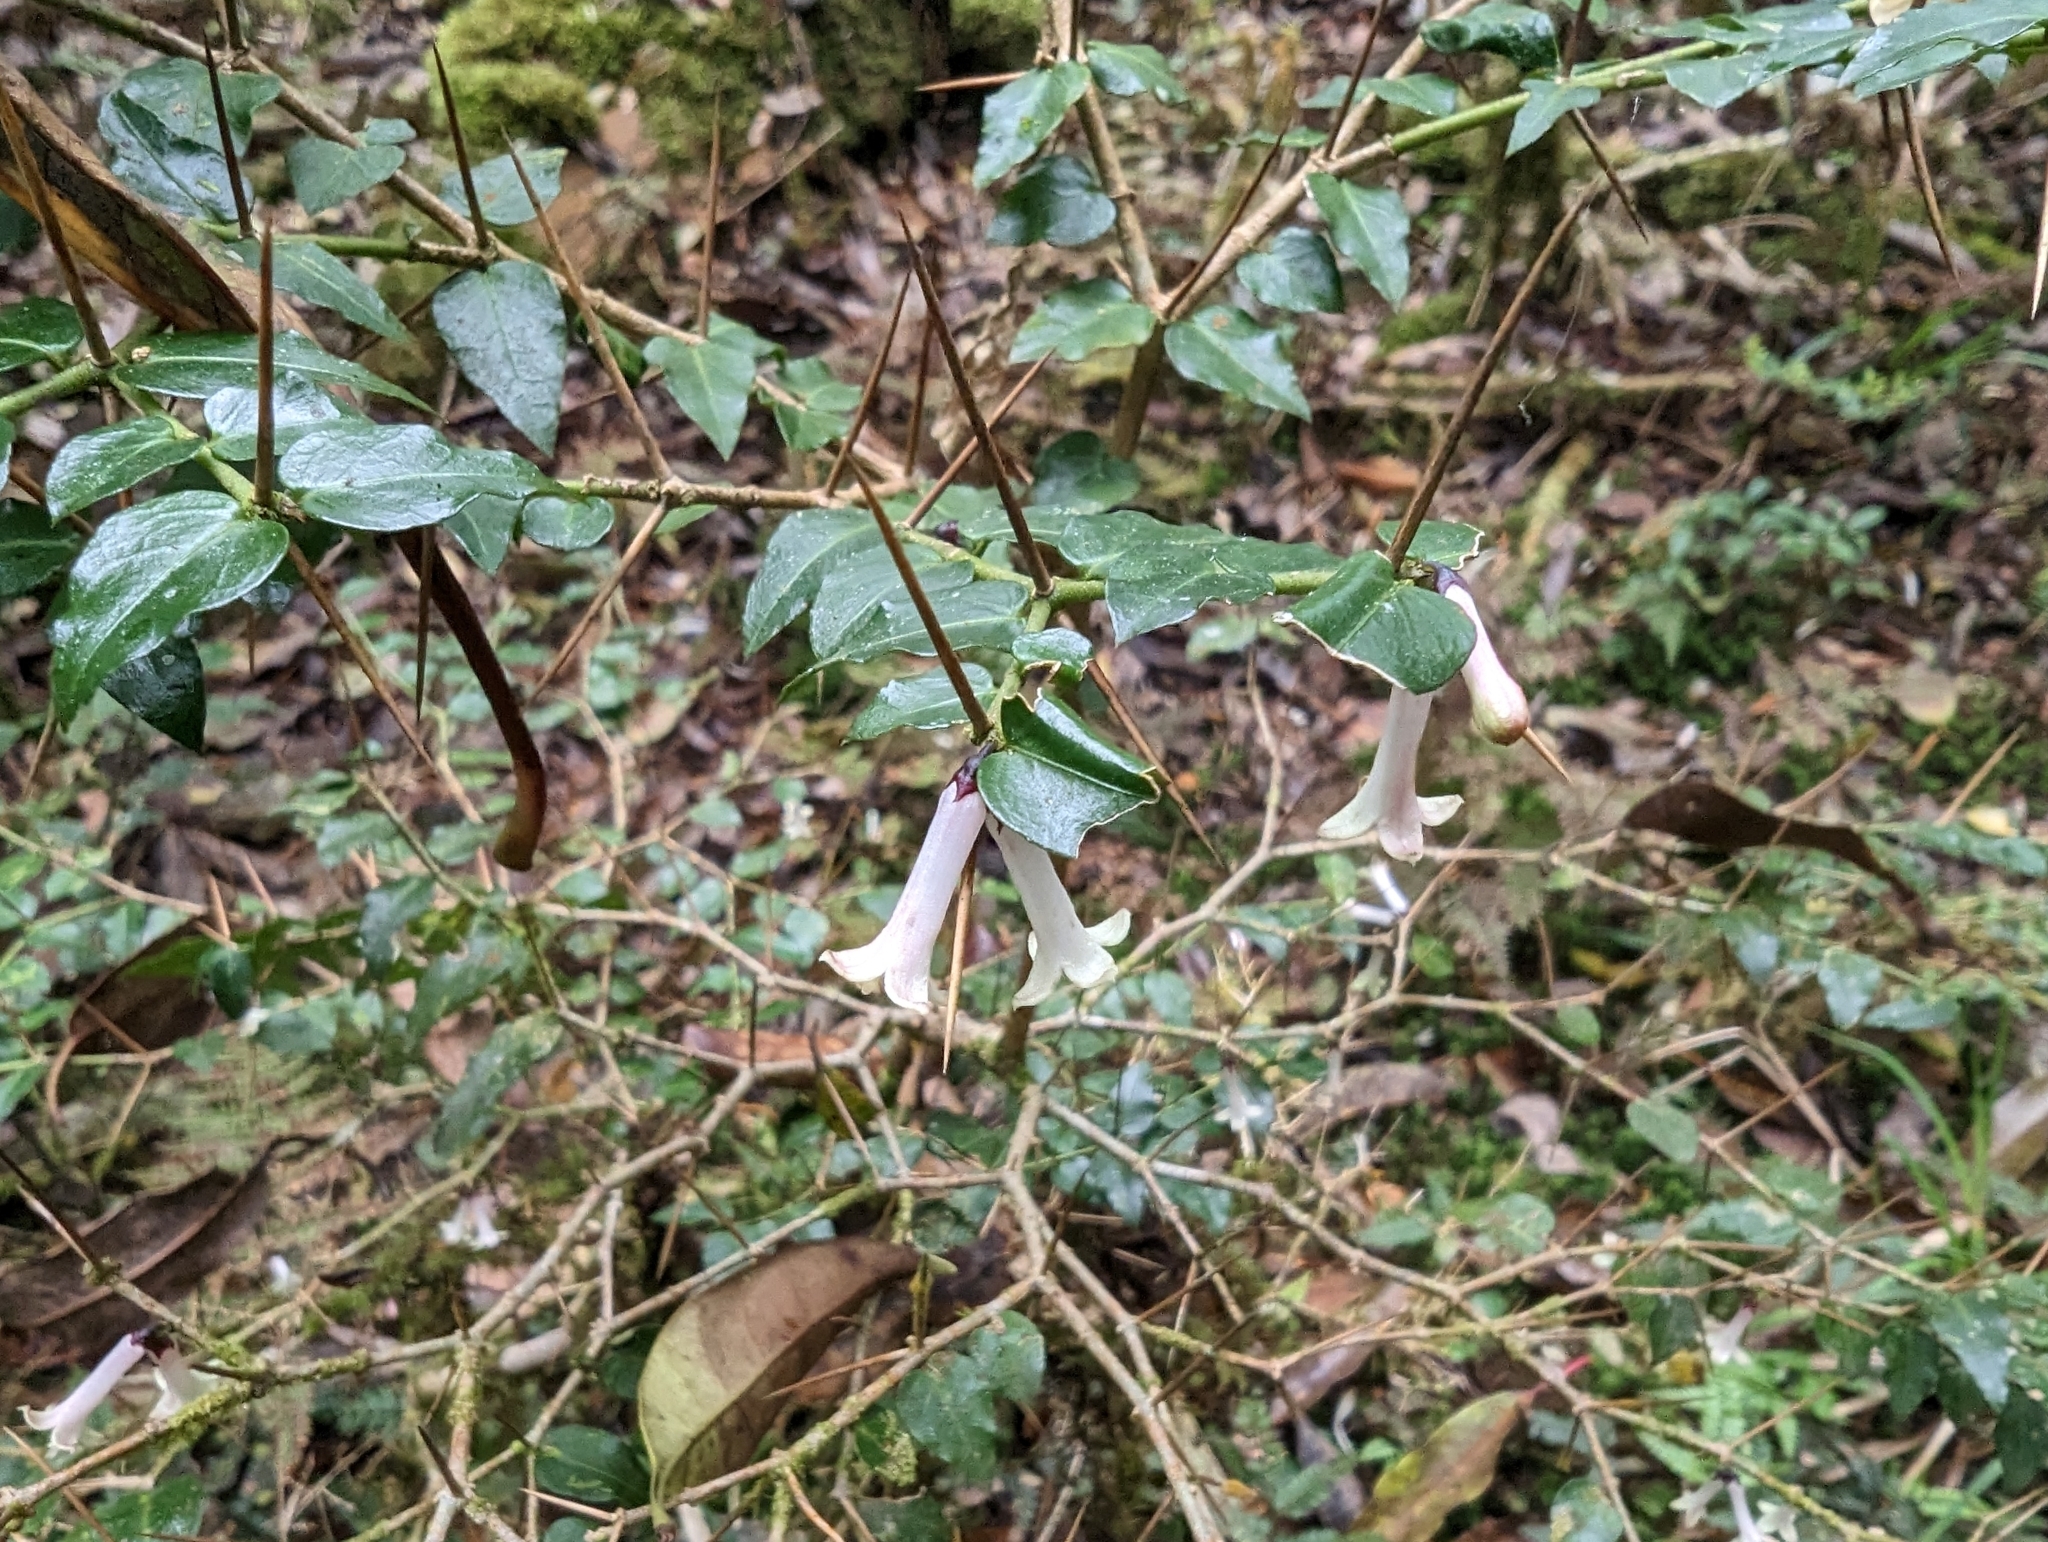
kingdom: Plantae
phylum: Tracheophyta
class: Magnoliopsida
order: Gentianales
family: Rubiaceae
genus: Damnacanthus
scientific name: Damnacanthus indicus
